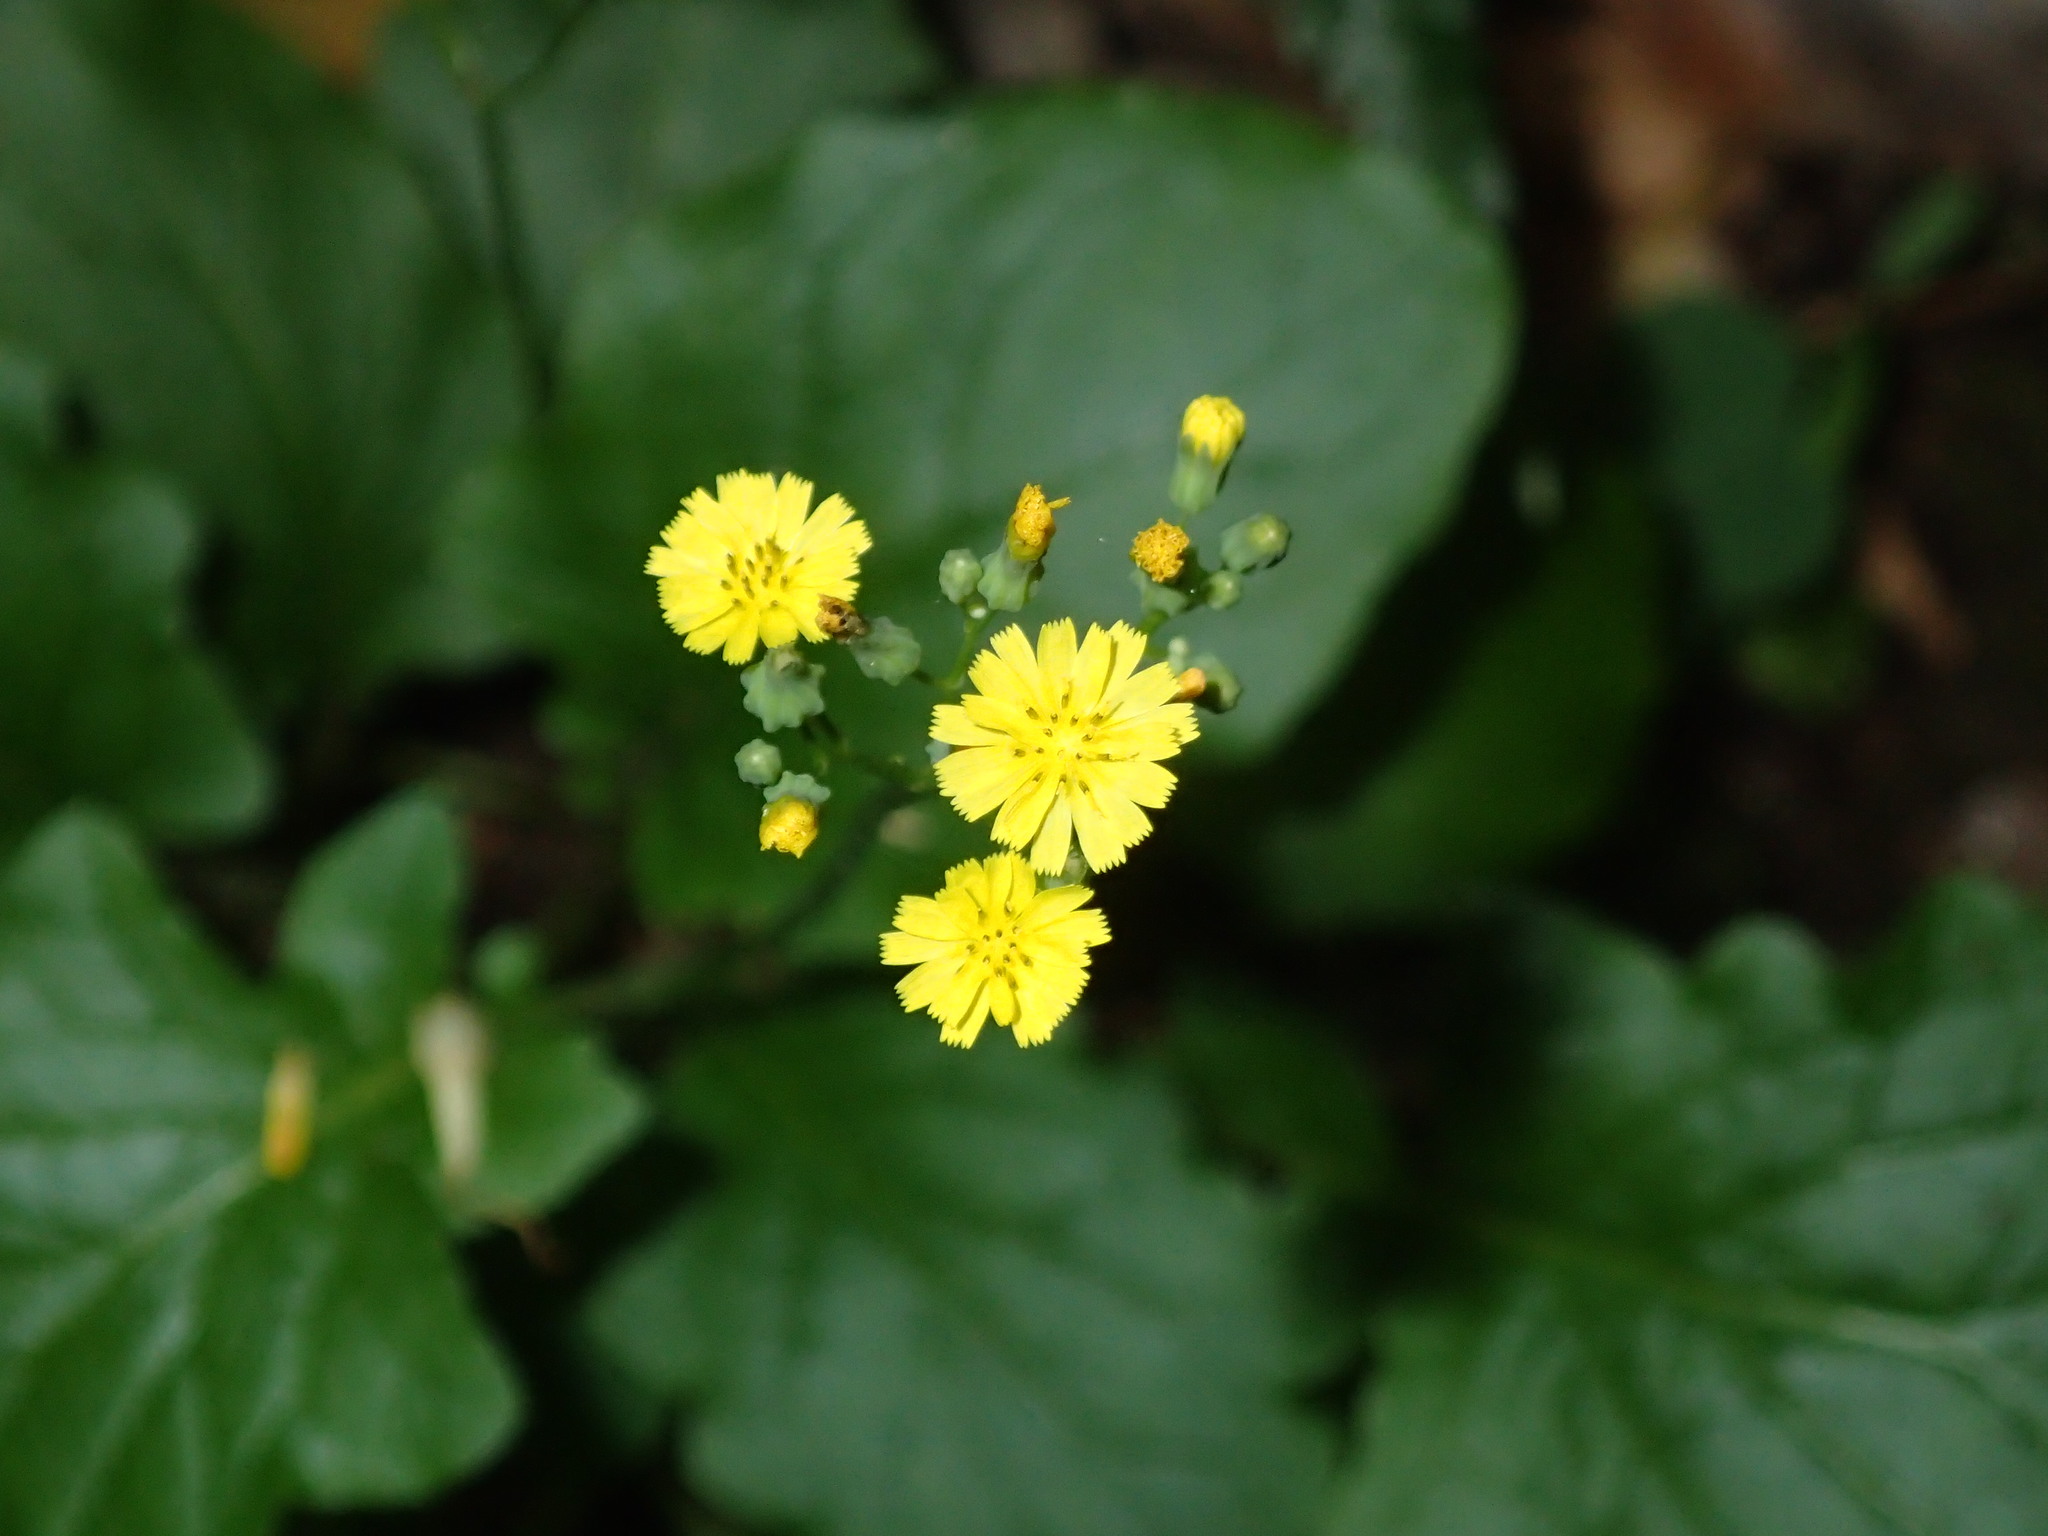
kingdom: Plantae
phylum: Tracheophyta
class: Magnoliopsida
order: Asterales
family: Asteraceae
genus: Youngia
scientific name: Youngia japonica
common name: Oriental false hawksbeard
